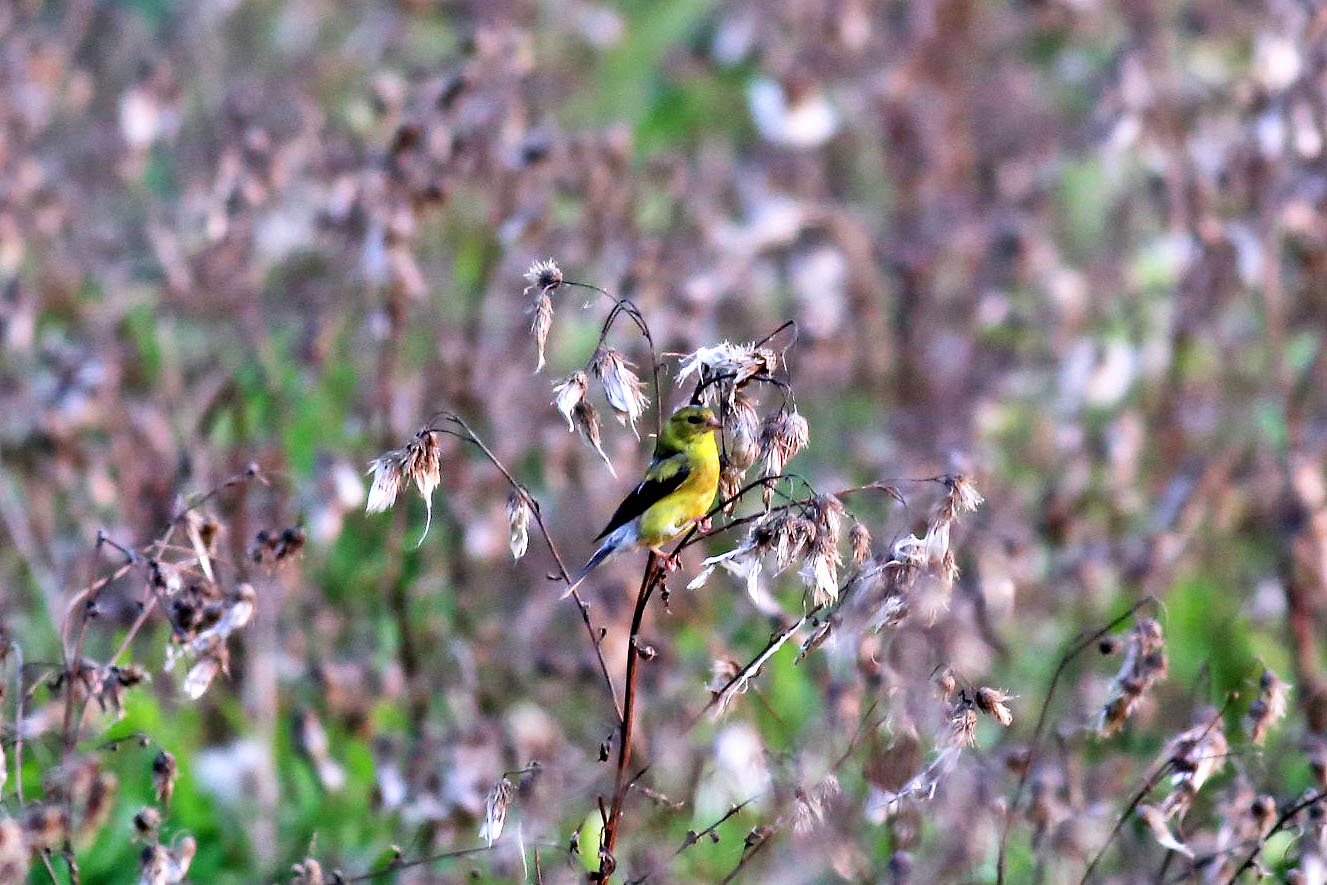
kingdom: Animalia
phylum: Chordata
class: Aves
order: Passeriformes
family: Fringillidae
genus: Spinus
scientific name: Spinus tristis
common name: American goldfinch
